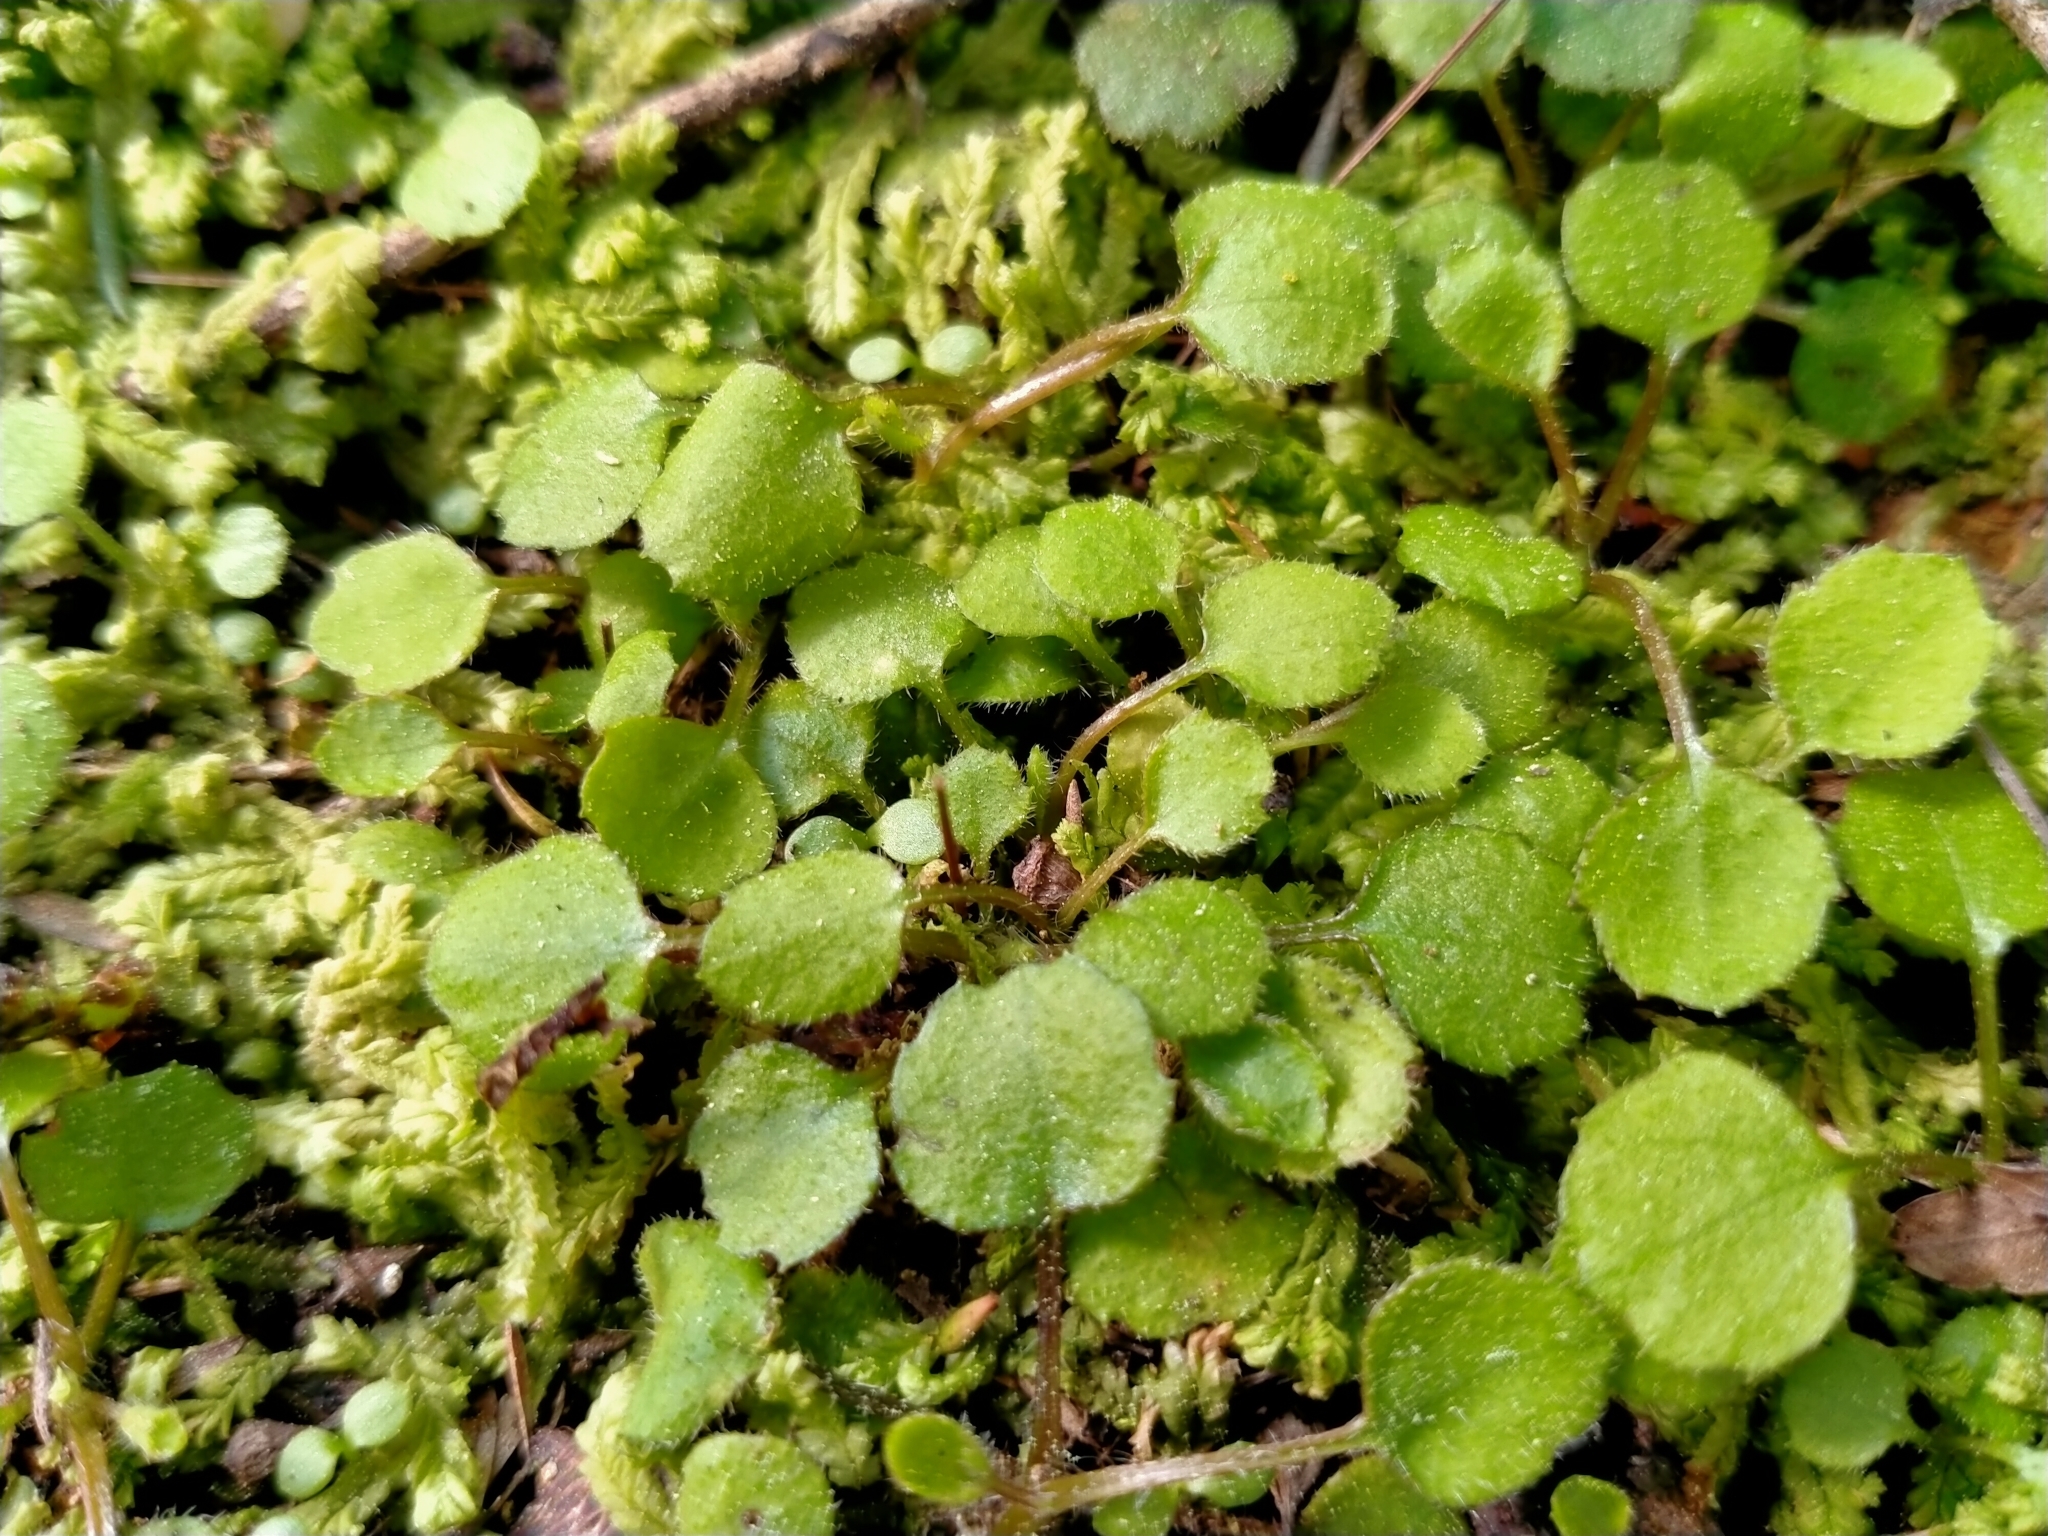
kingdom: Plantae
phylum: Tracheophyta
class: Magnoliopsida
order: Asterales
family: Asteraceae
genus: Lagenophora
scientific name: Lagenophora strangulata
